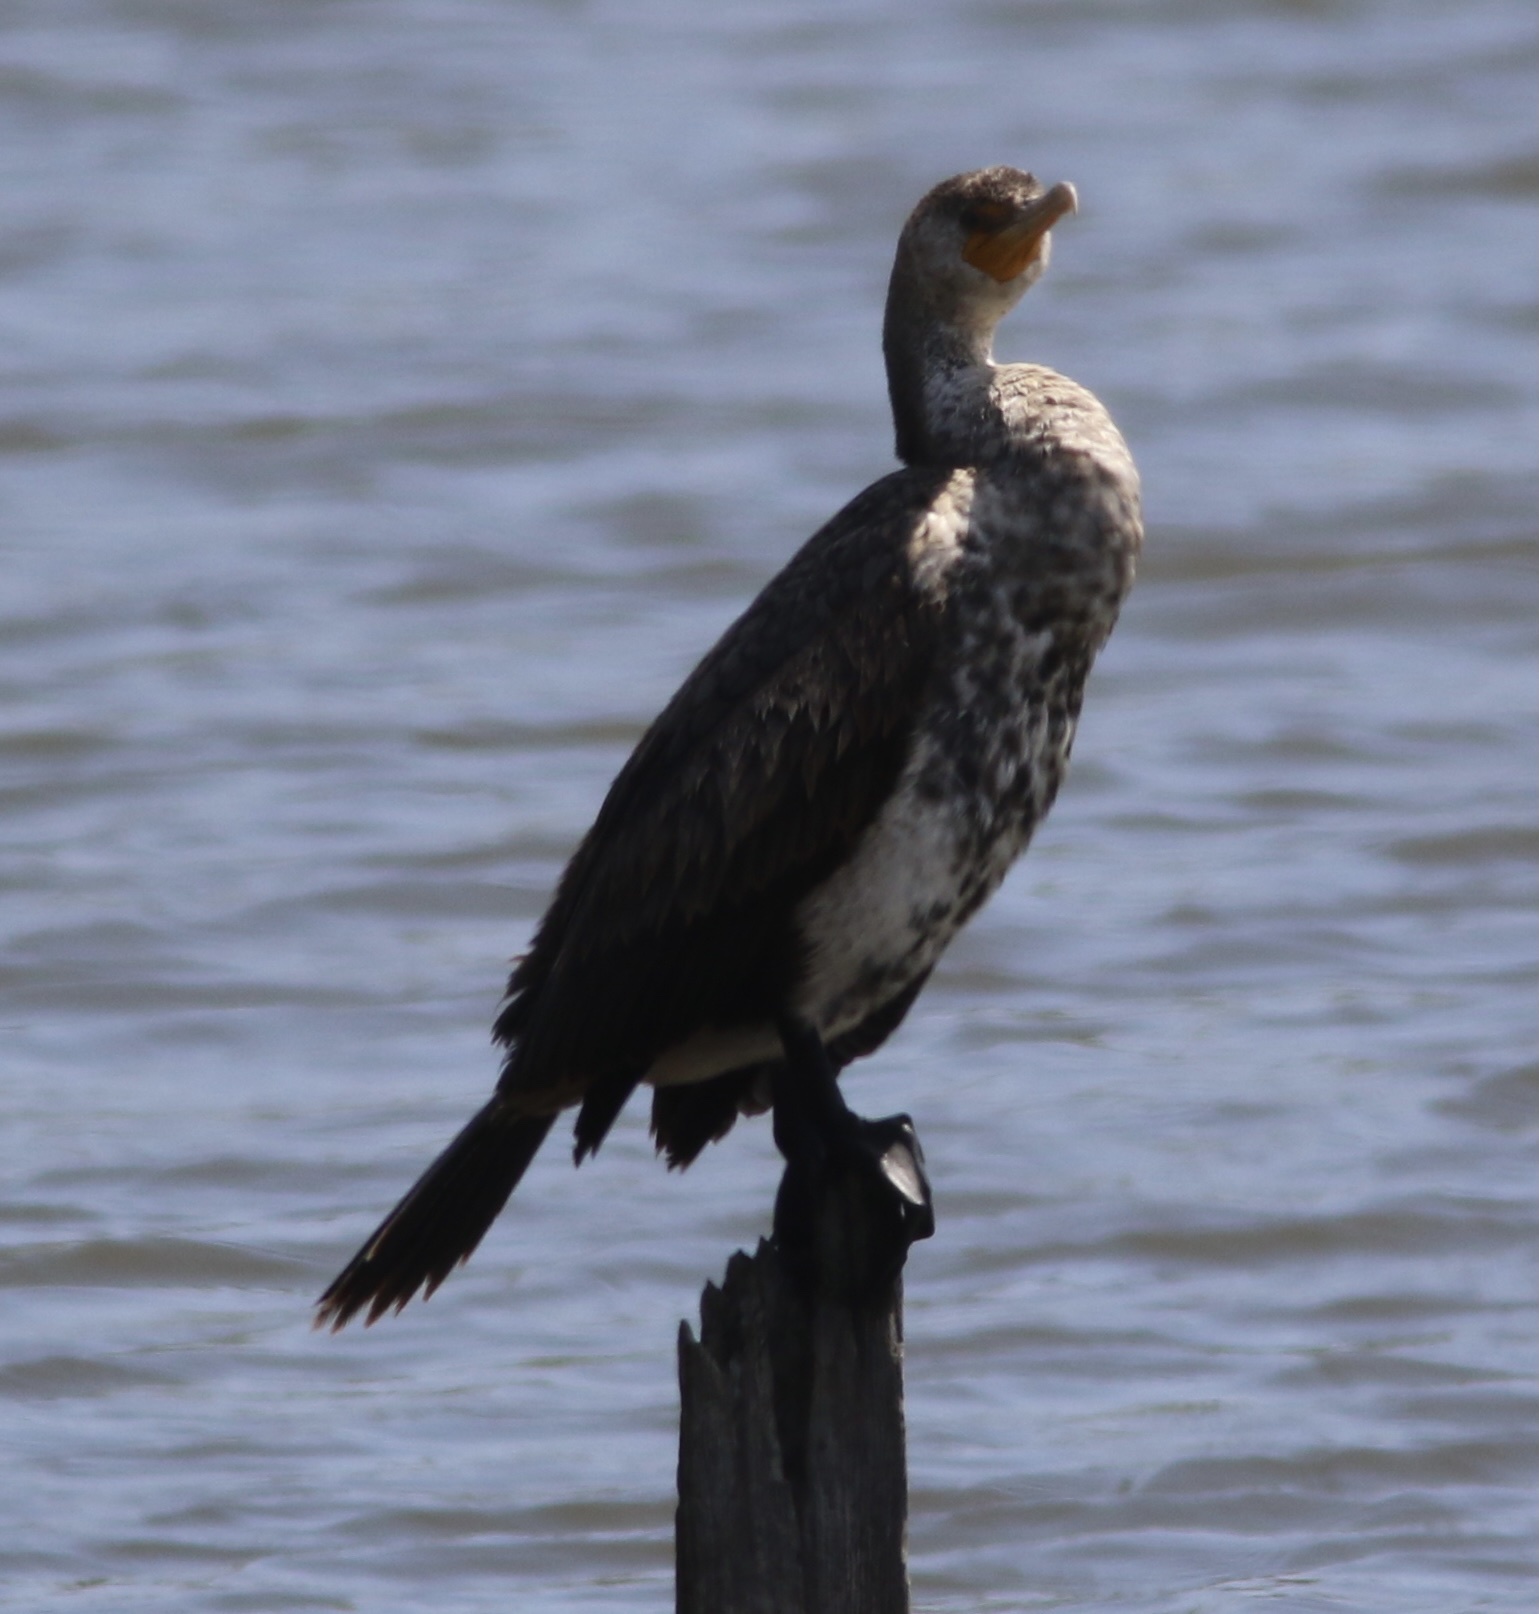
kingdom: Animalia
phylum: Chordata
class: Aves
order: Suliformes
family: Phalacrocoracidae
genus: Phalacrocorax
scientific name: Phalacrocorax auritus
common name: Double-crested cormorant
